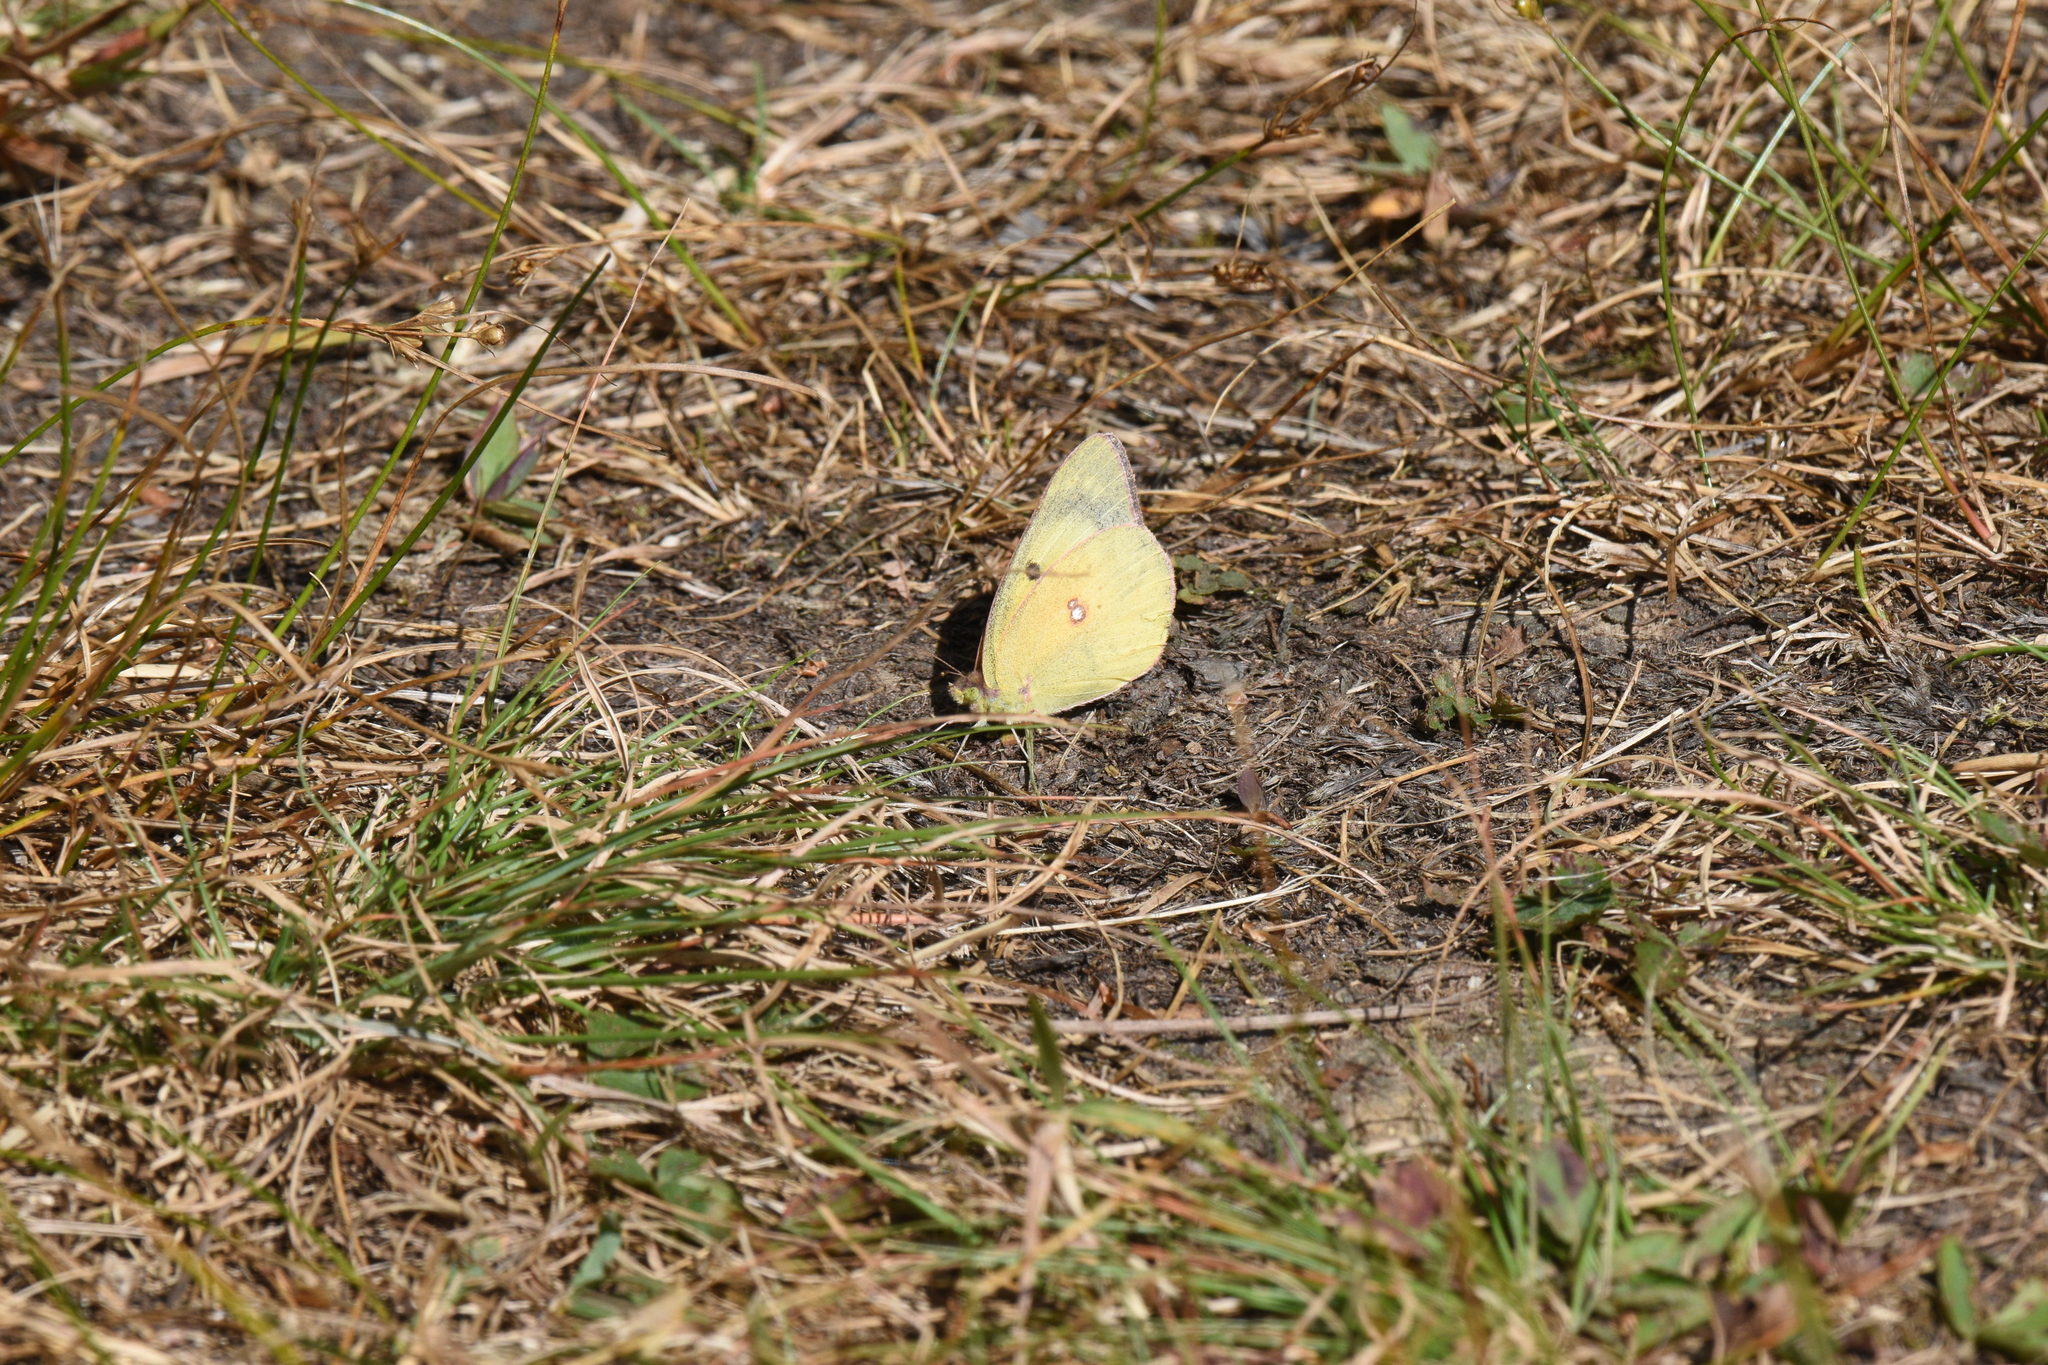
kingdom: Animalia
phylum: Arthropoda
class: Insecta
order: Lepidoptera
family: Pieridae
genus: Colias
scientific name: Colias eurytheme
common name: Alfalfa butterfly
